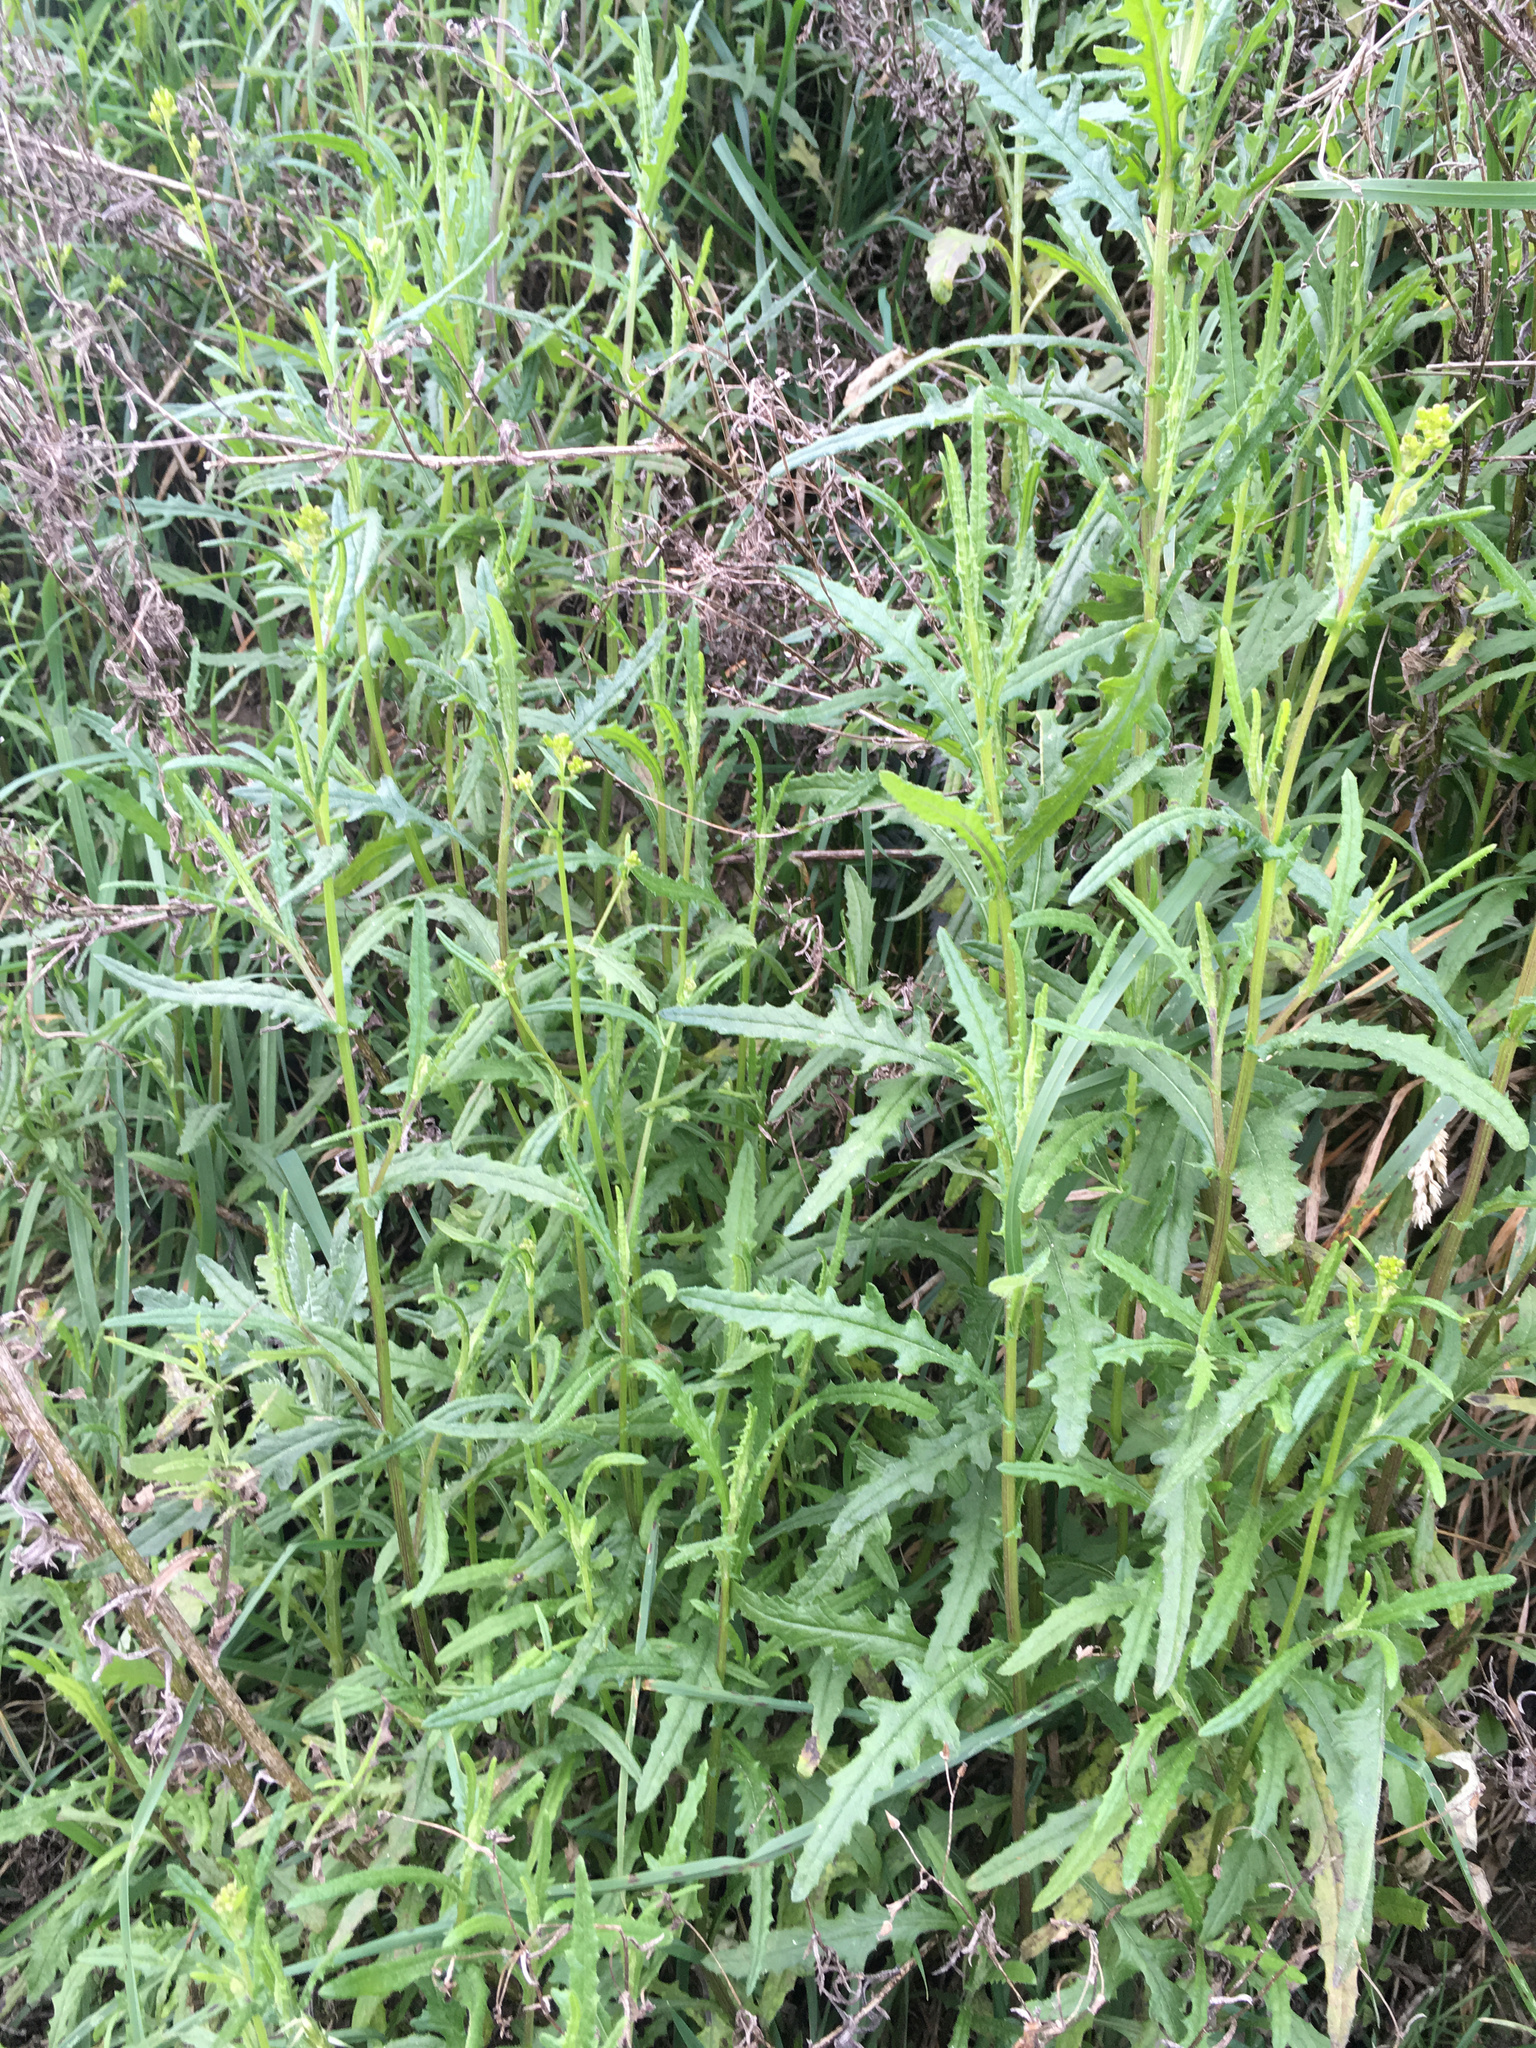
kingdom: Plantae
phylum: Tracheophyta
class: Magnoliopsida
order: Asterales
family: Asteraceae
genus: Senecio
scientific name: Senecio hispidulus
